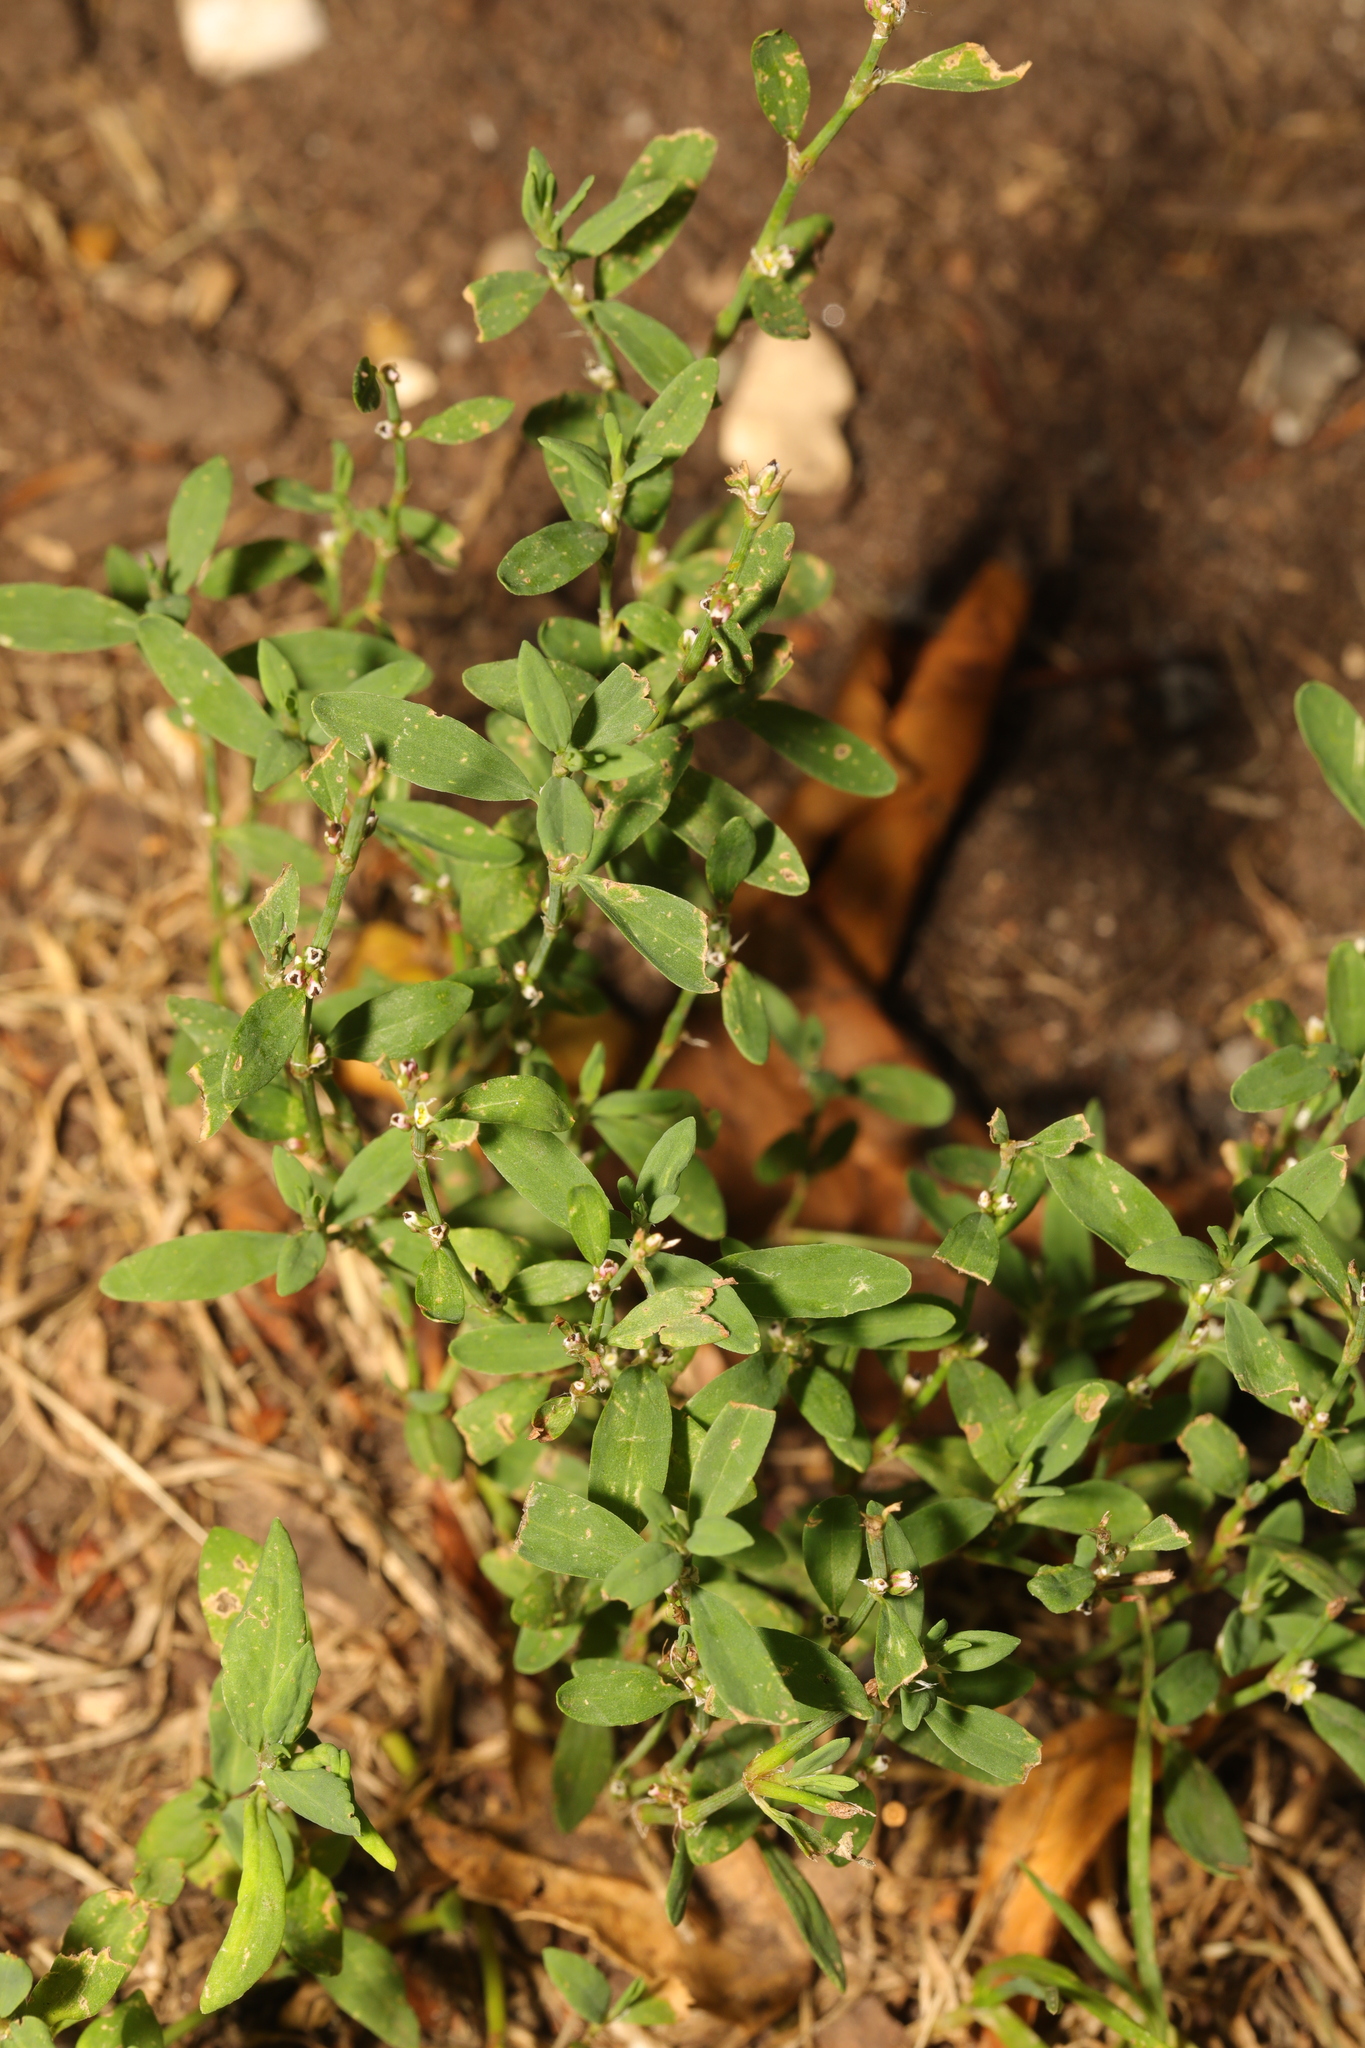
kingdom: Plantae
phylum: Tracheophyta
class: Magnoliopsida
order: Caryophyllales
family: Polygonaceae
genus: Polygonum
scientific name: Polygonum aviculare
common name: Prostrate knotweed
